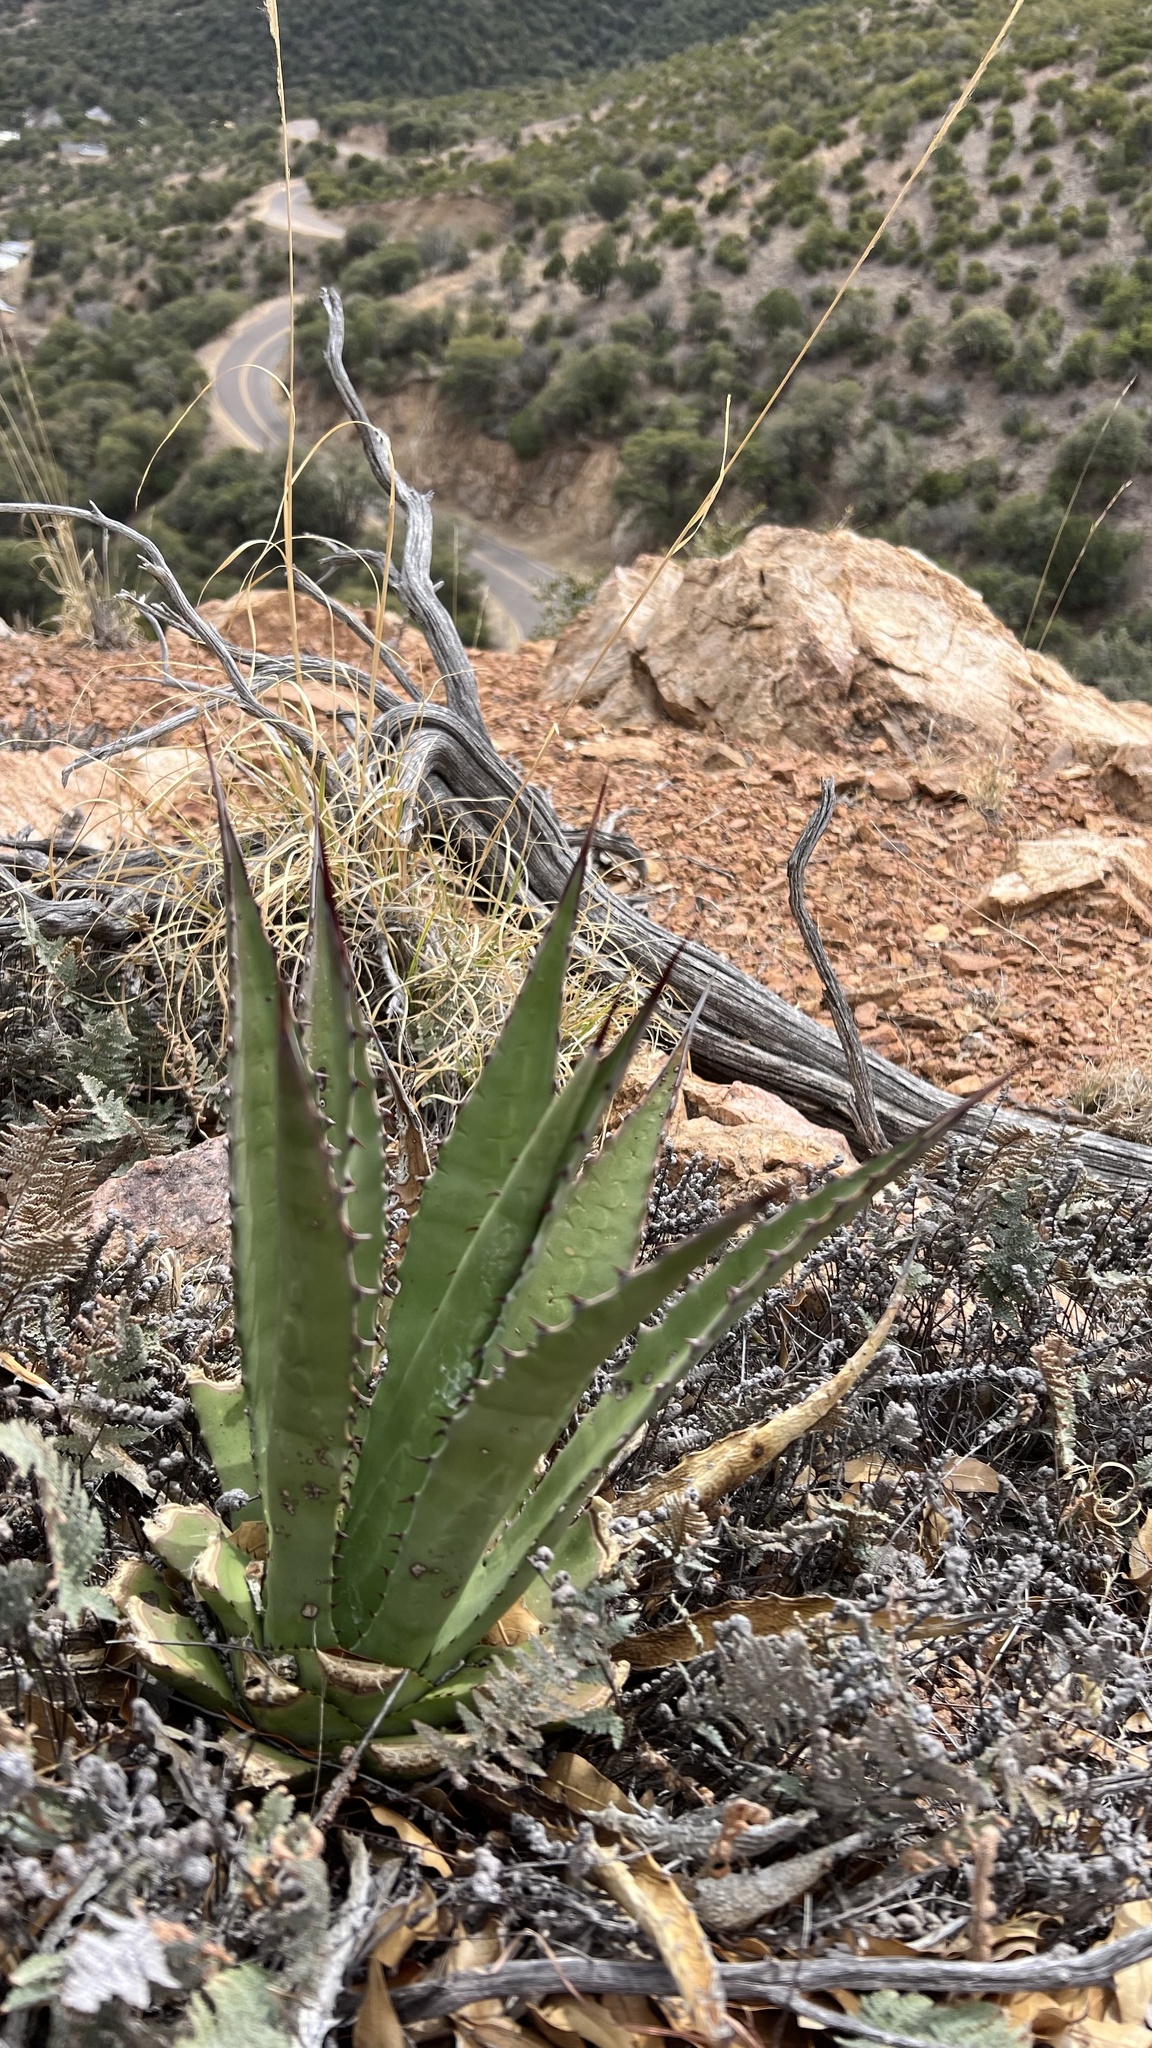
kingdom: Plantae
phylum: Tracheophyta
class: Liliopsida
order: Asparagales
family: Asparagaceae
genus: Agave
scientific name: Agave palmeri
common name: Palmer agave
